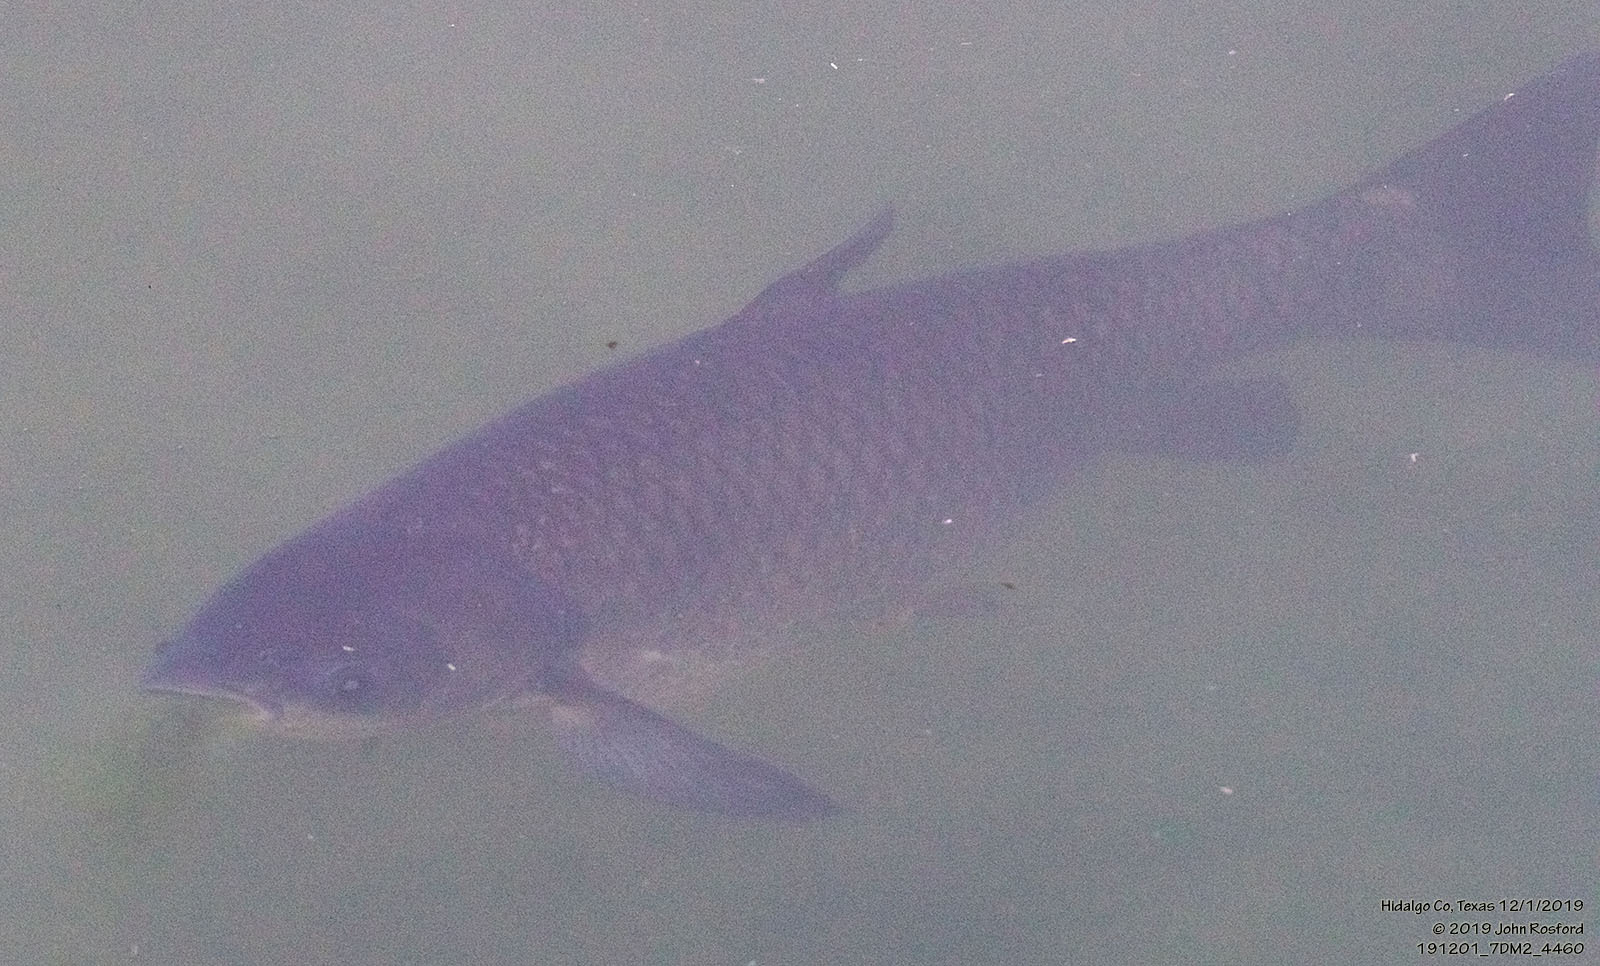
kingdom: Animalia
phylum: Chordata
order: Cypriniformes
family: Cyprinidae
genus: Ctenopharyngodon
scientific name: Ctenopharyngodon idella
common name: Grass carp
